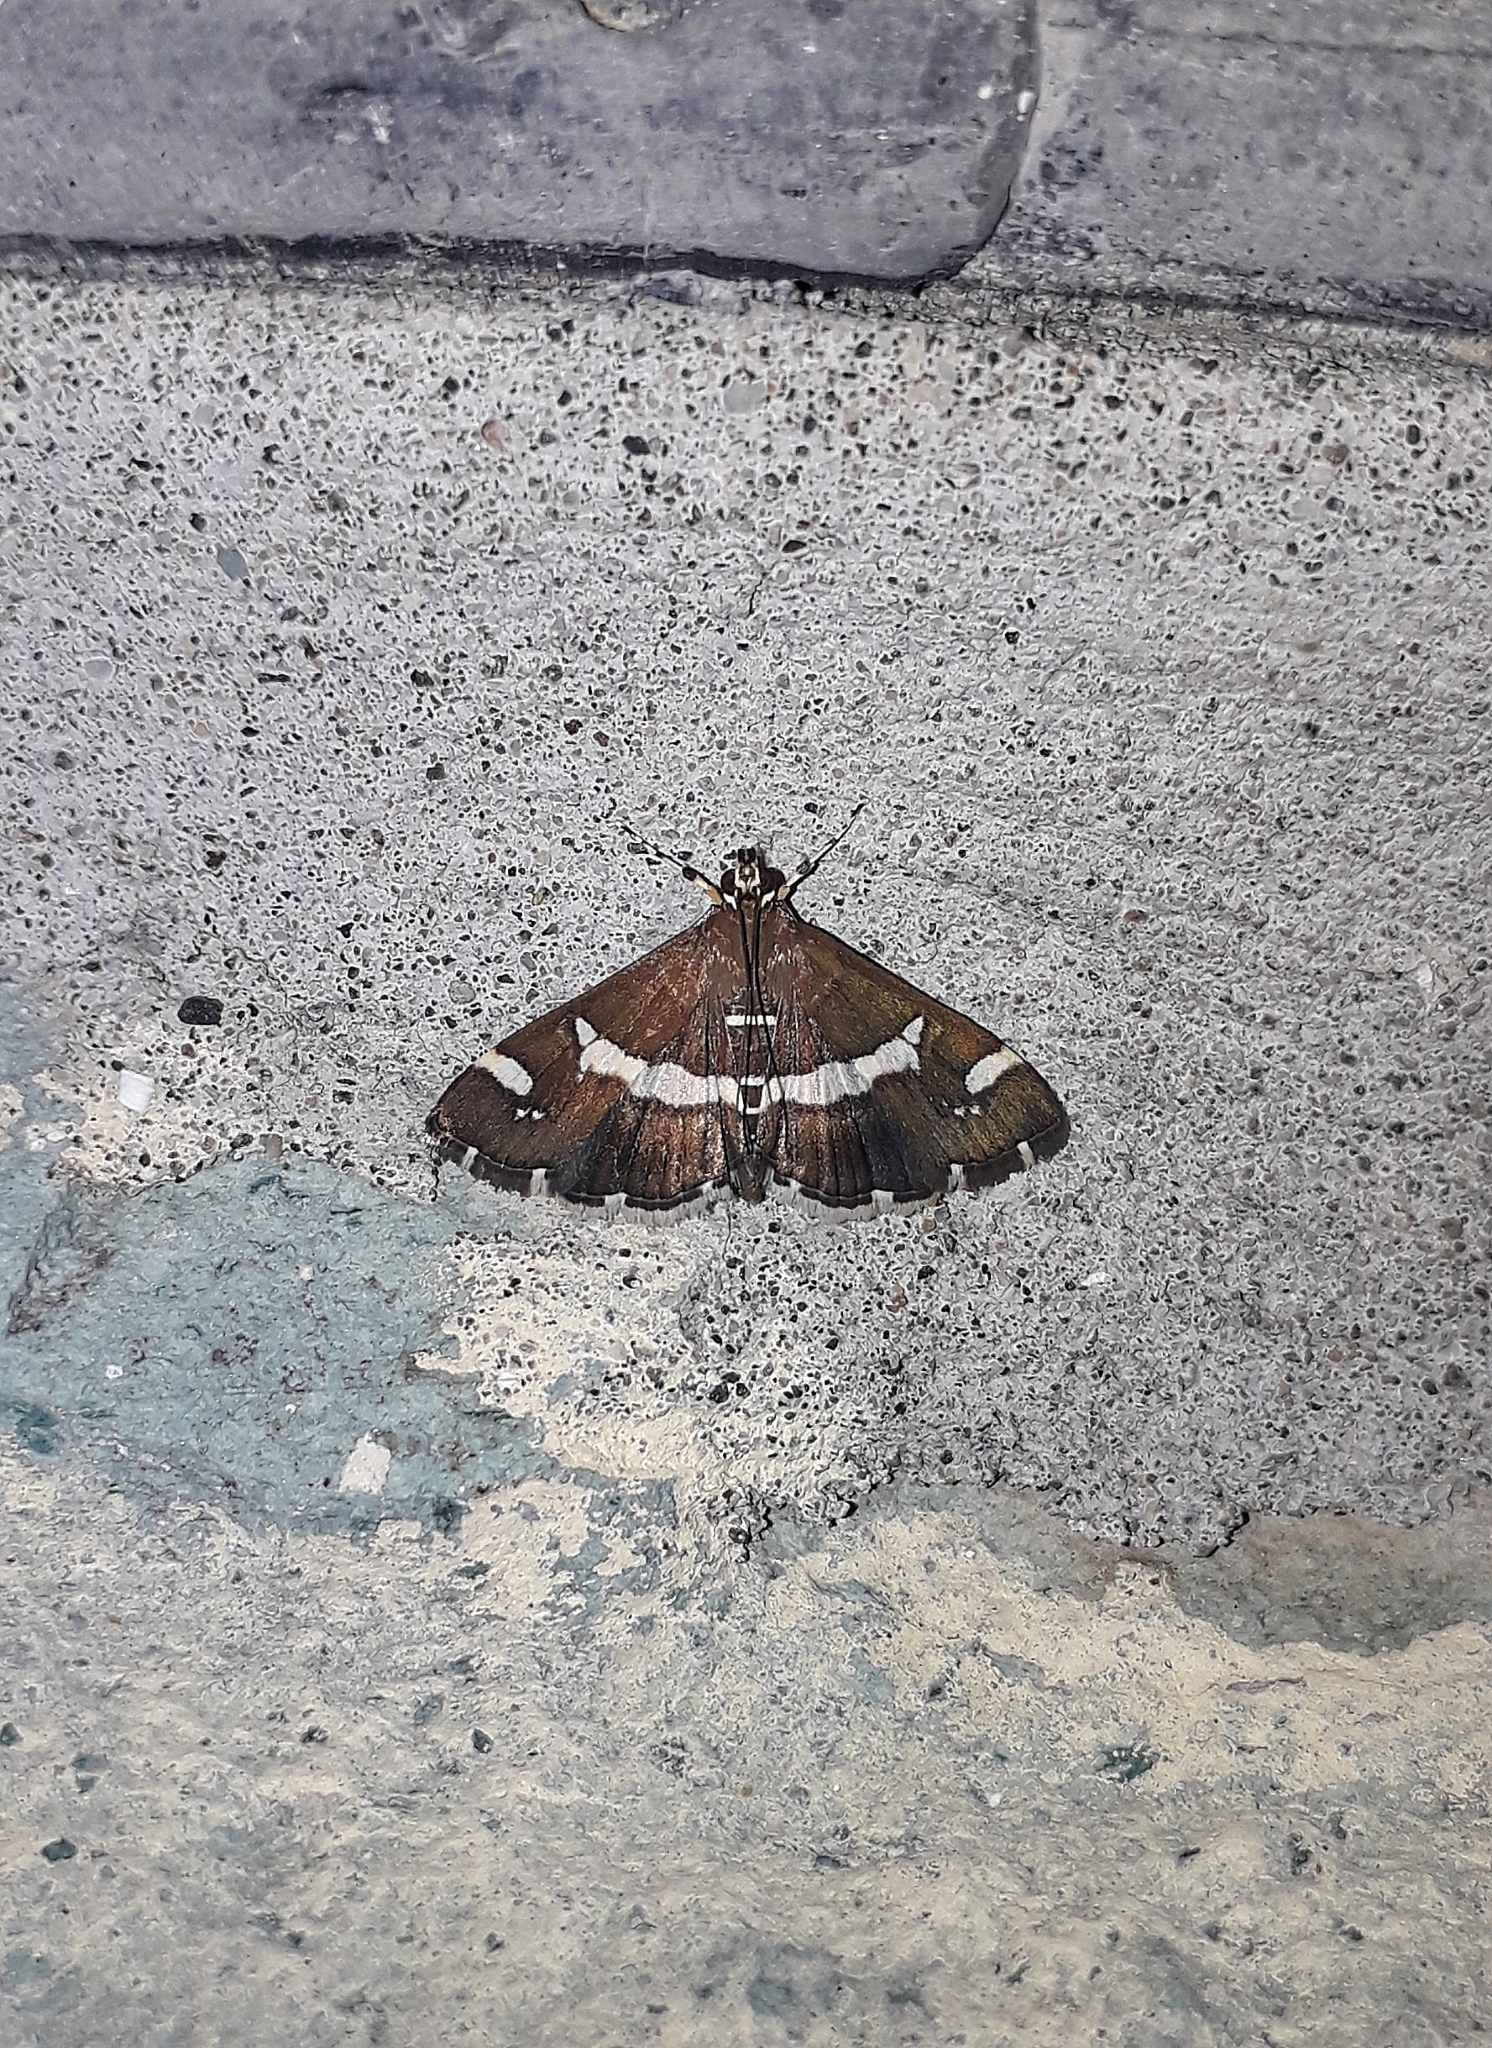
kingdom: Animalia
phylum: Arthropoda
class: Insecta
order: Lepidoptera
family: Crambidae
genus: Spoladea
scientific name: Spoladea recurvalis
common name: Beet webworm moth
